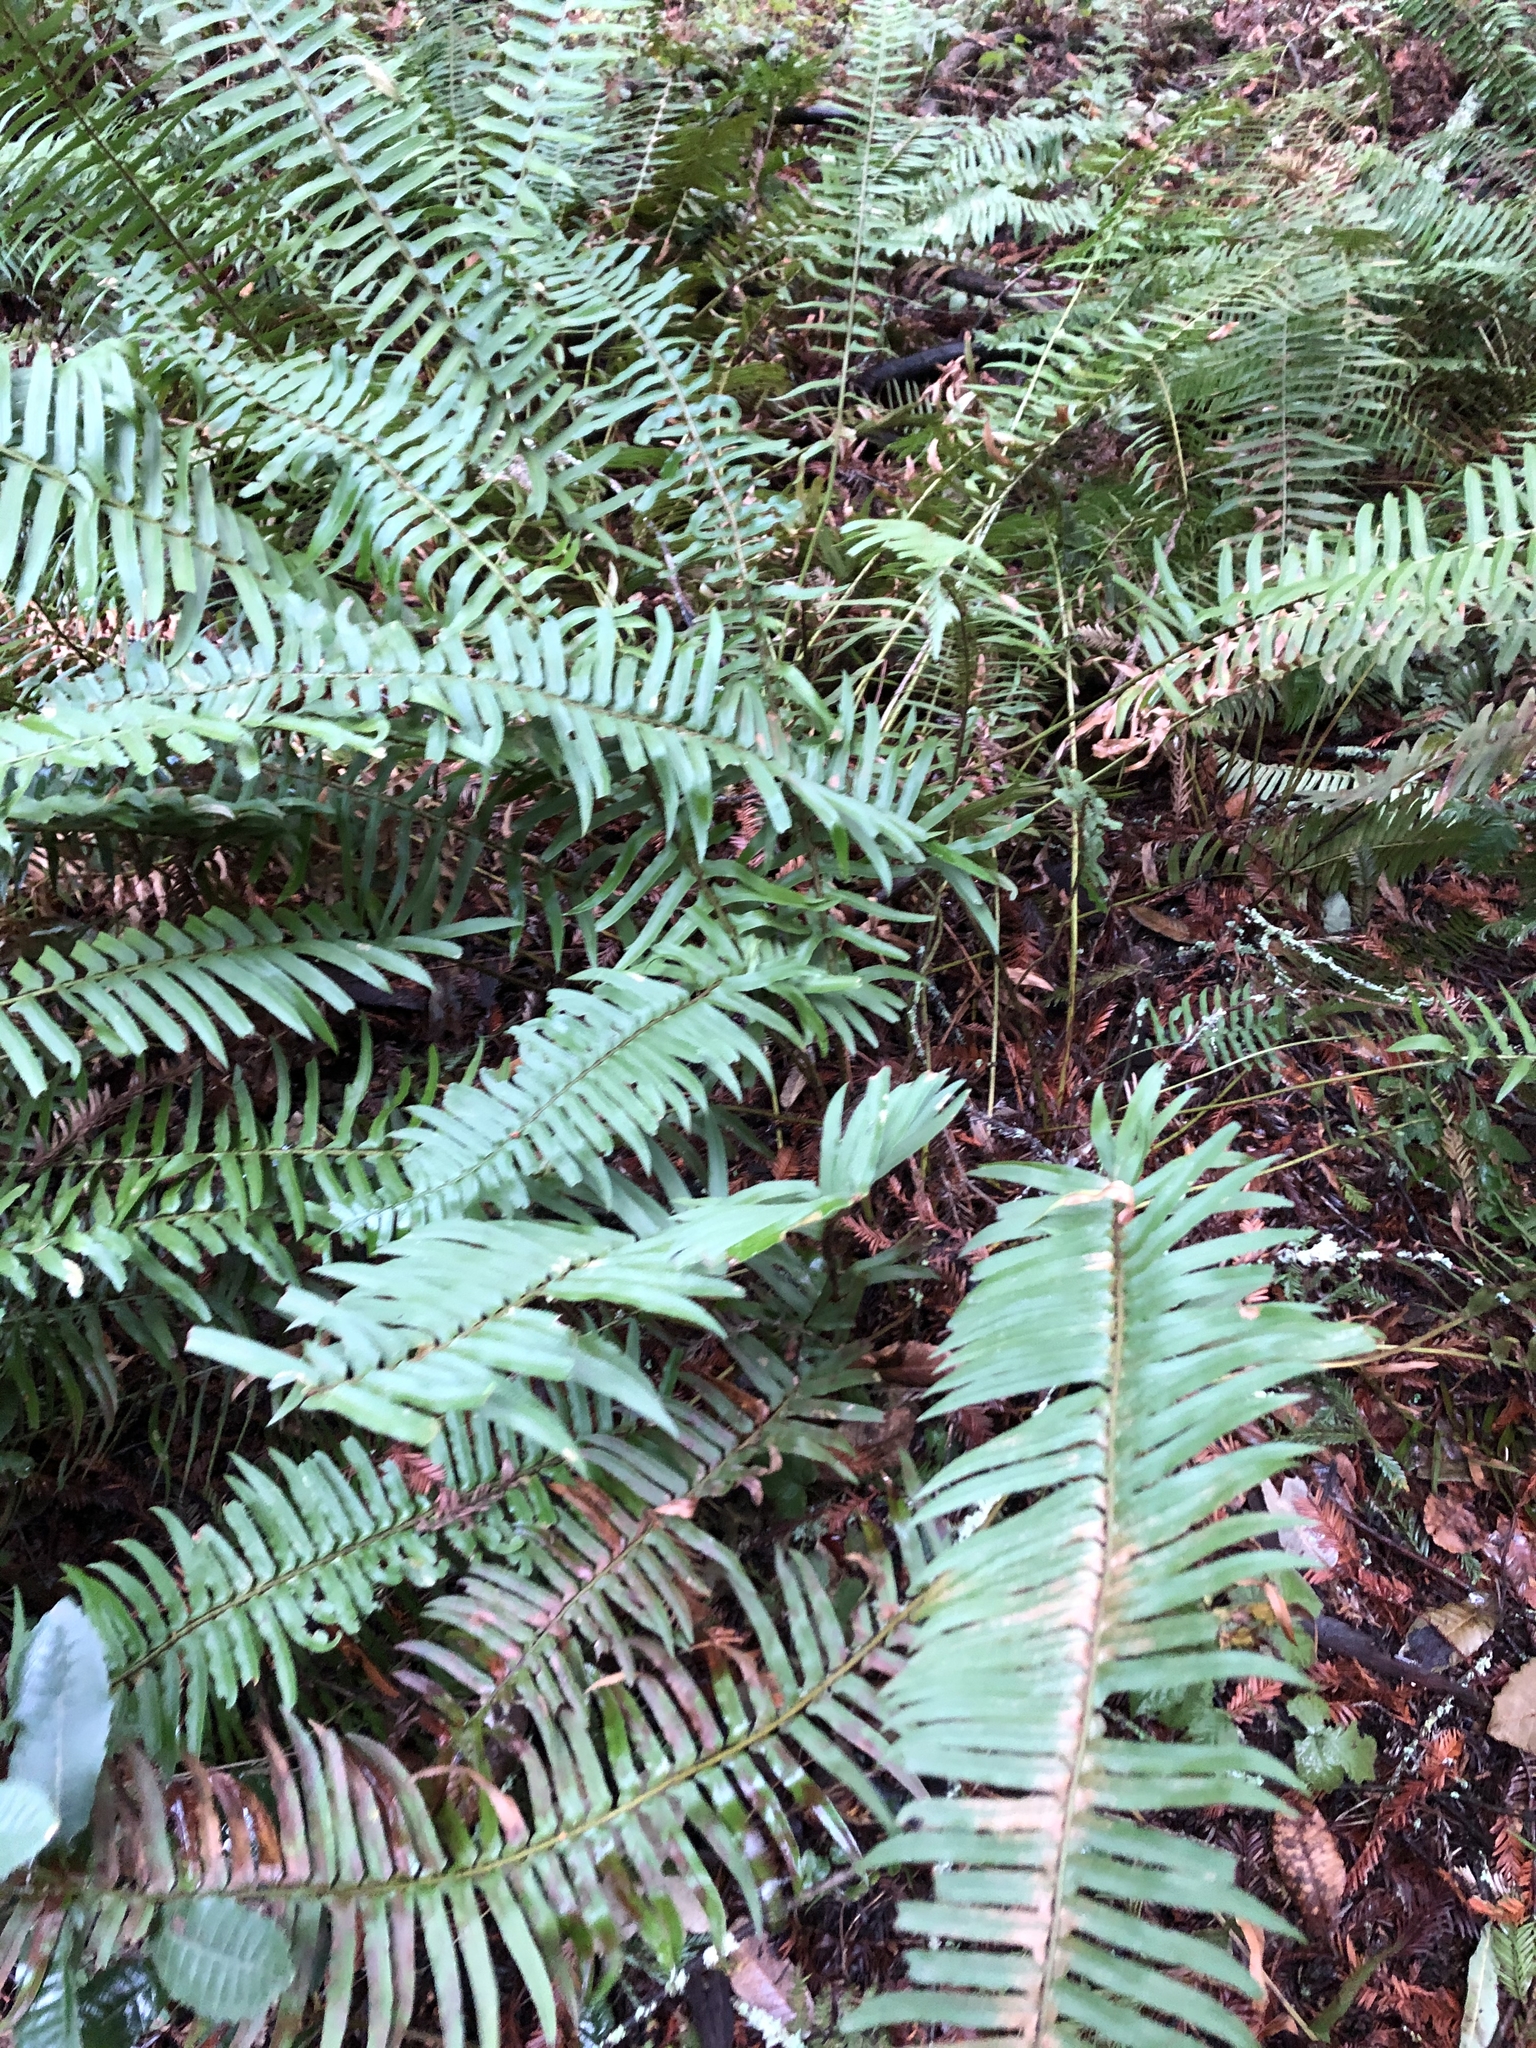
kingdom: Plantae
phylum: Tracheophyta
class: Polypodiopsida
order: Polypodiales
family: Dryopteridaceae
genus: Polystichum
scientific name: Polystichum munitum
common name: Western sword-fern
